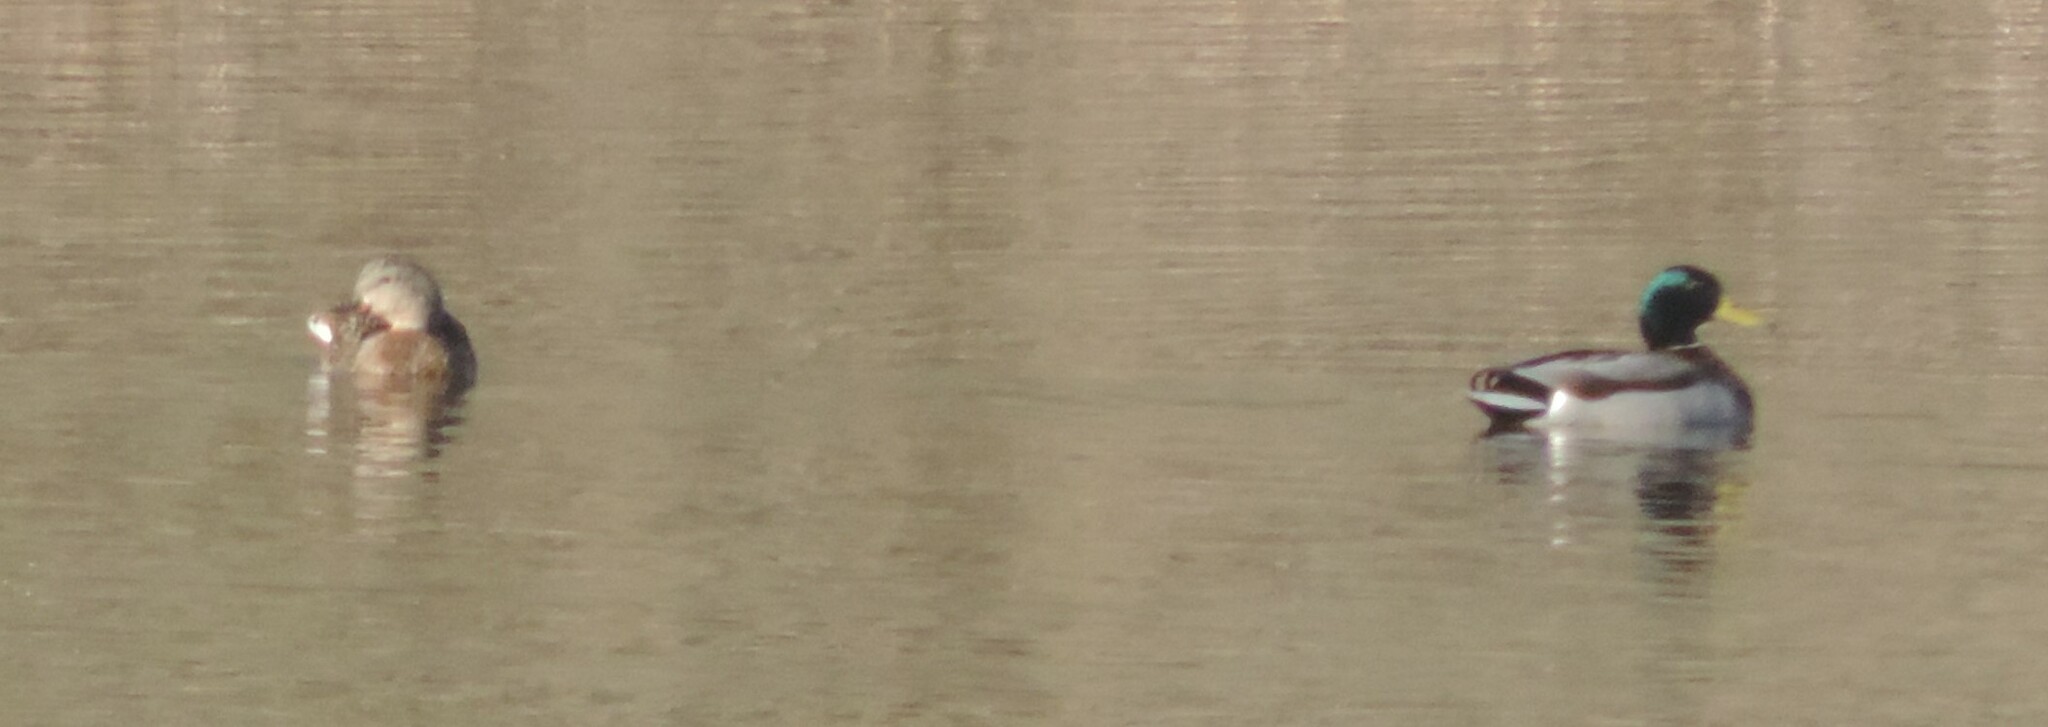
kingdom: Animalia
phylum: Chordata
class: Aves
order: Anseriformes
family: Anatidae
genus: Anas
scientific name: Anas platyrhynchos
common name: Mallard
